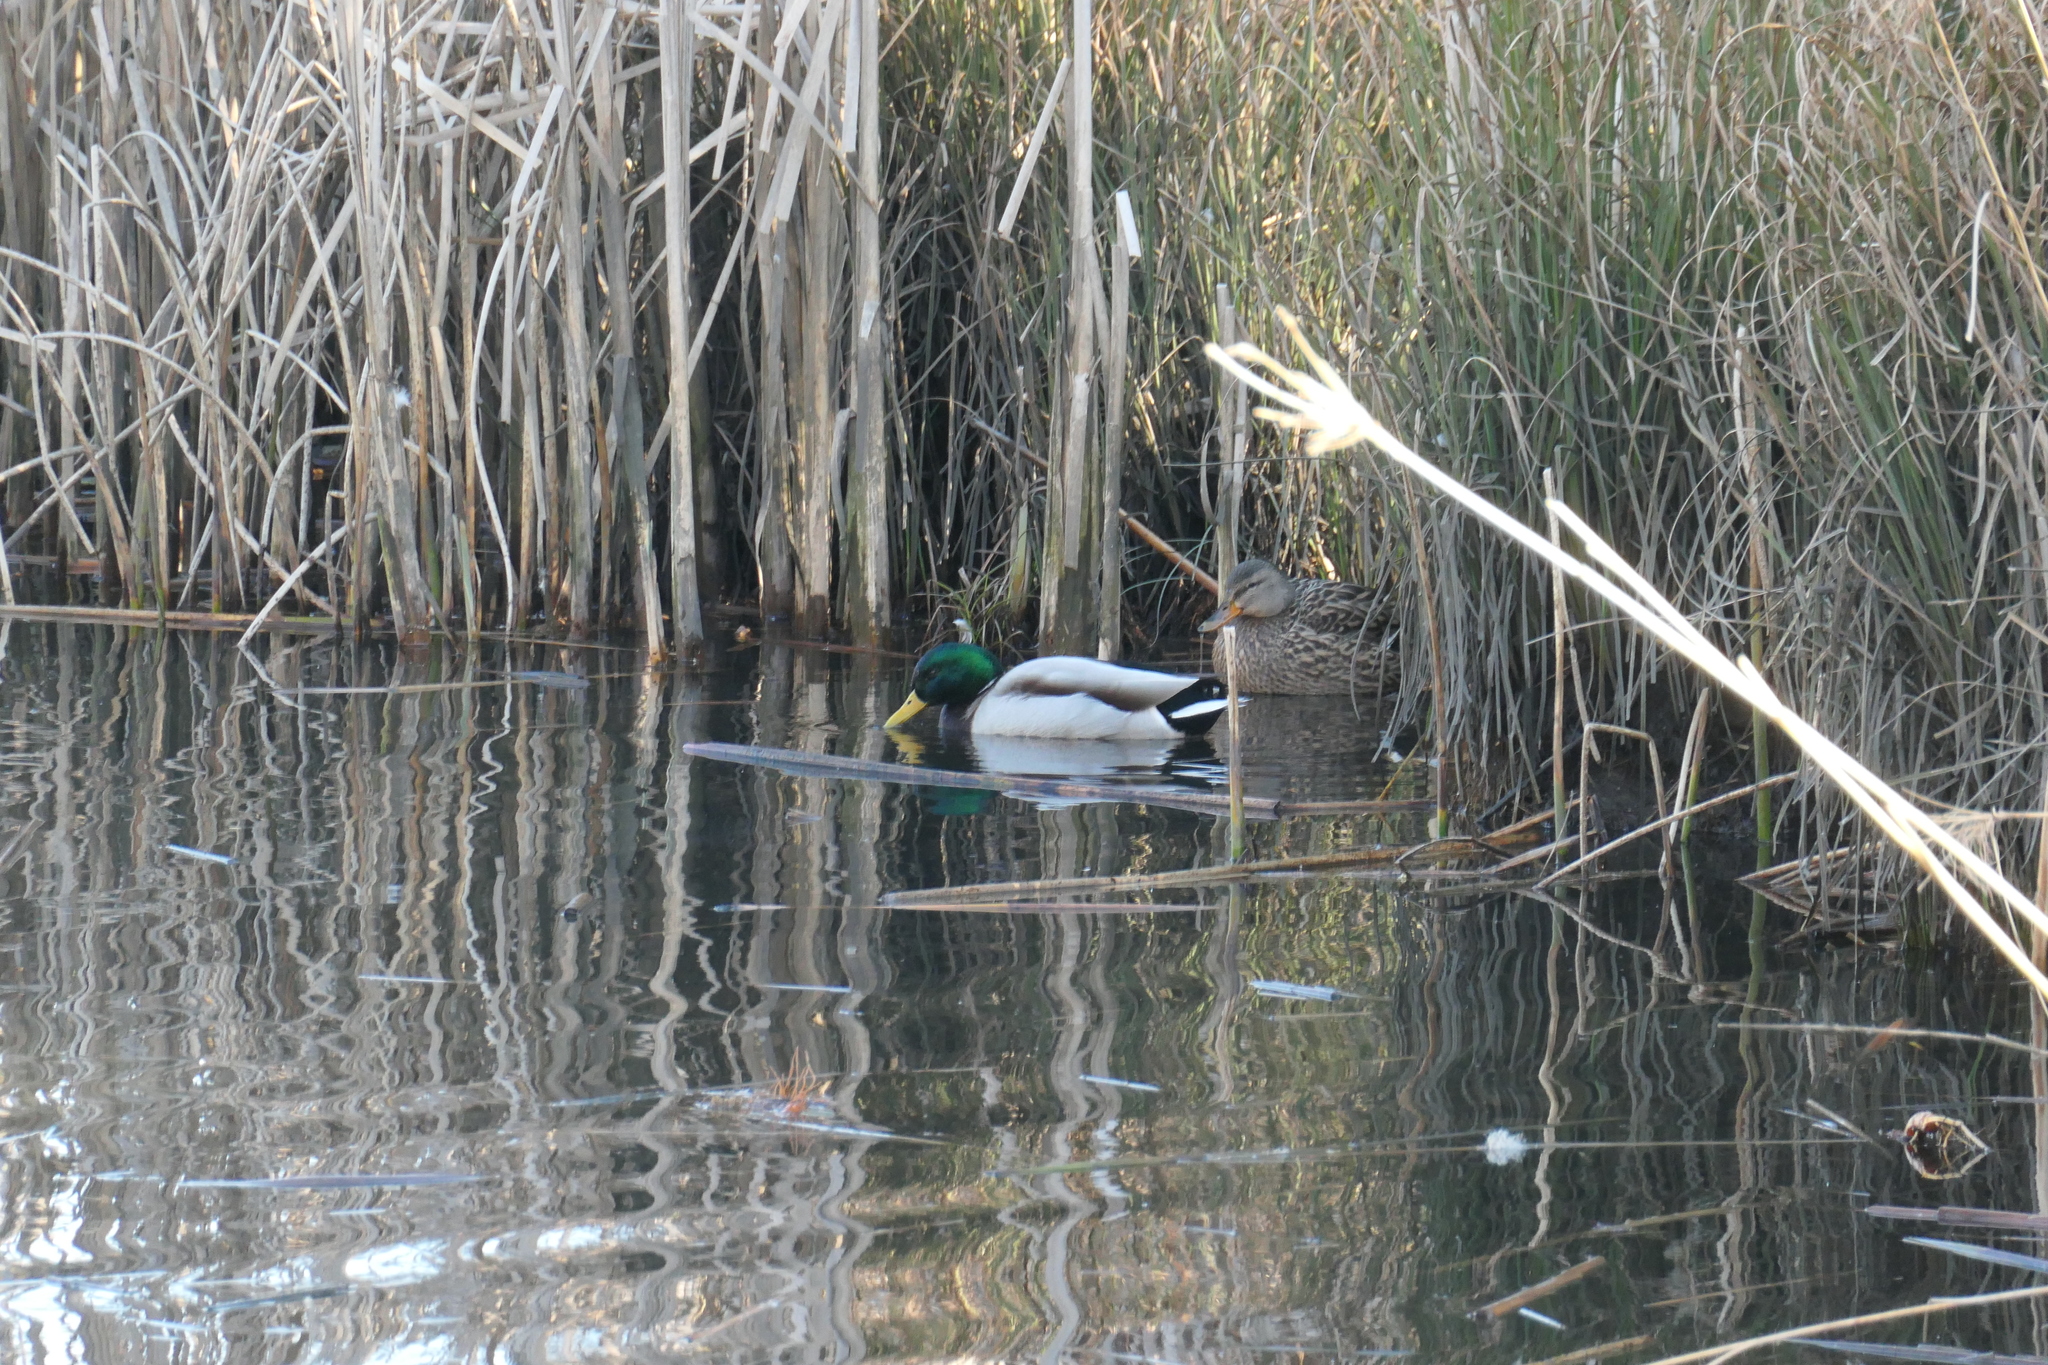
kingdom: Animalia
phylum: Chordata
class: Aves
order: Anseriformes
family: Anatidae
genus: Anas
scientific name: Anas platyrhynchos
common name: Mallard
